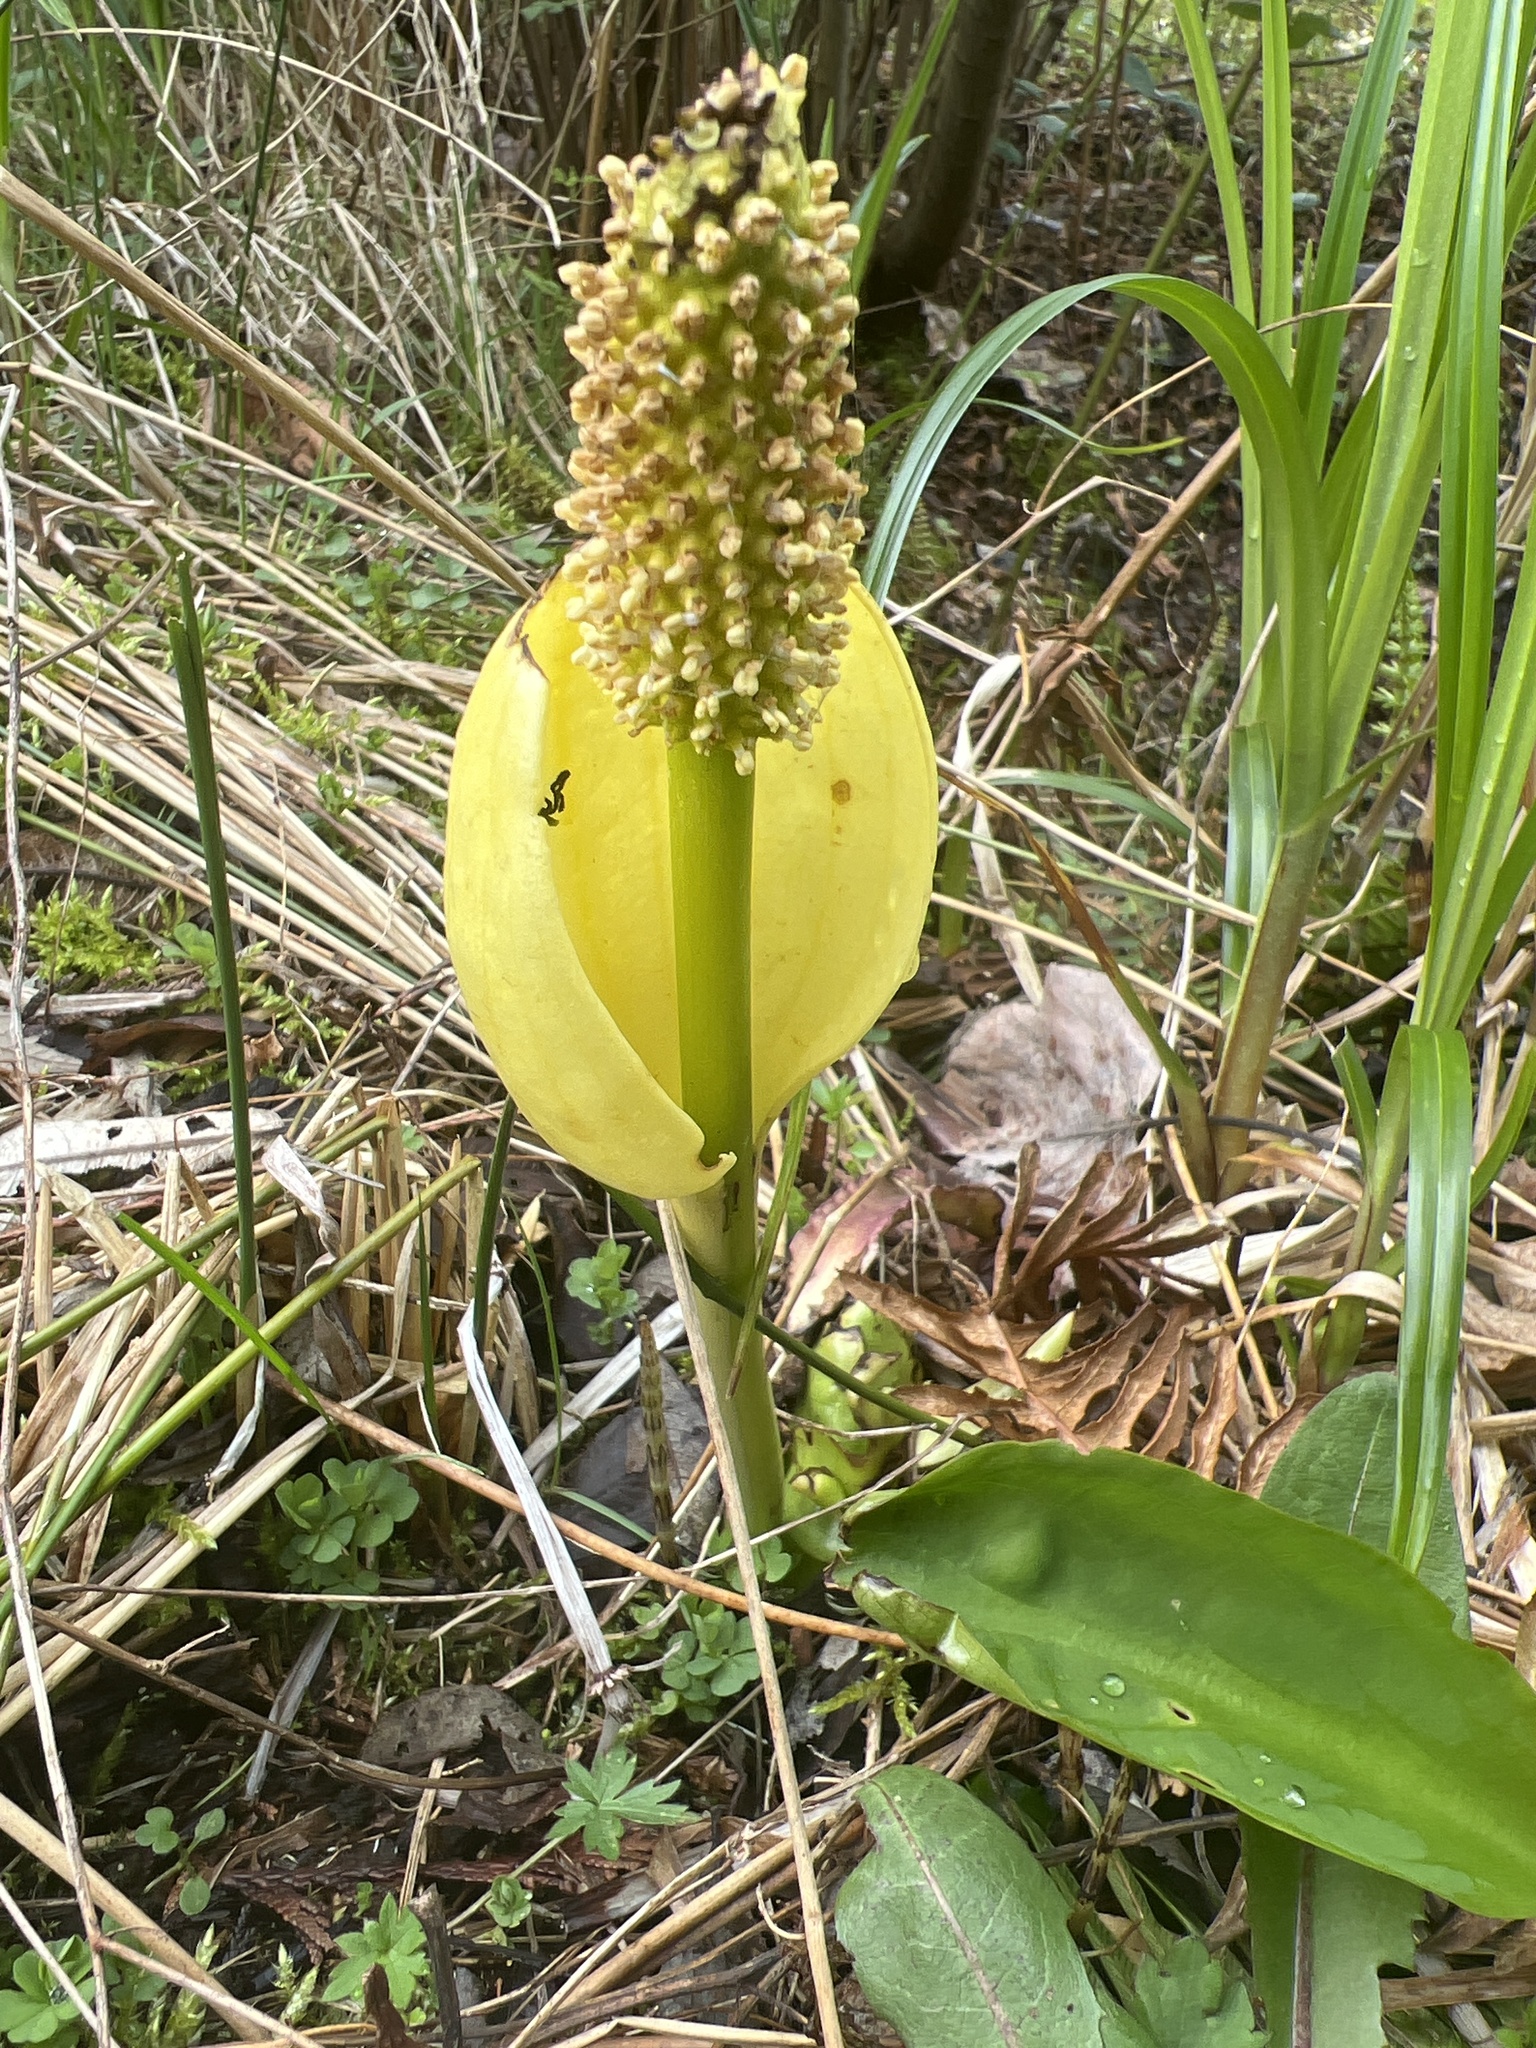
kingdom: Plantae
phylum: Tracheophyta
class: Liliopsida
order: Alismatales
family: Araceae
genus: Lysichiton
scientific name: Lysichiton americanus
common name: American skunk cabbage
